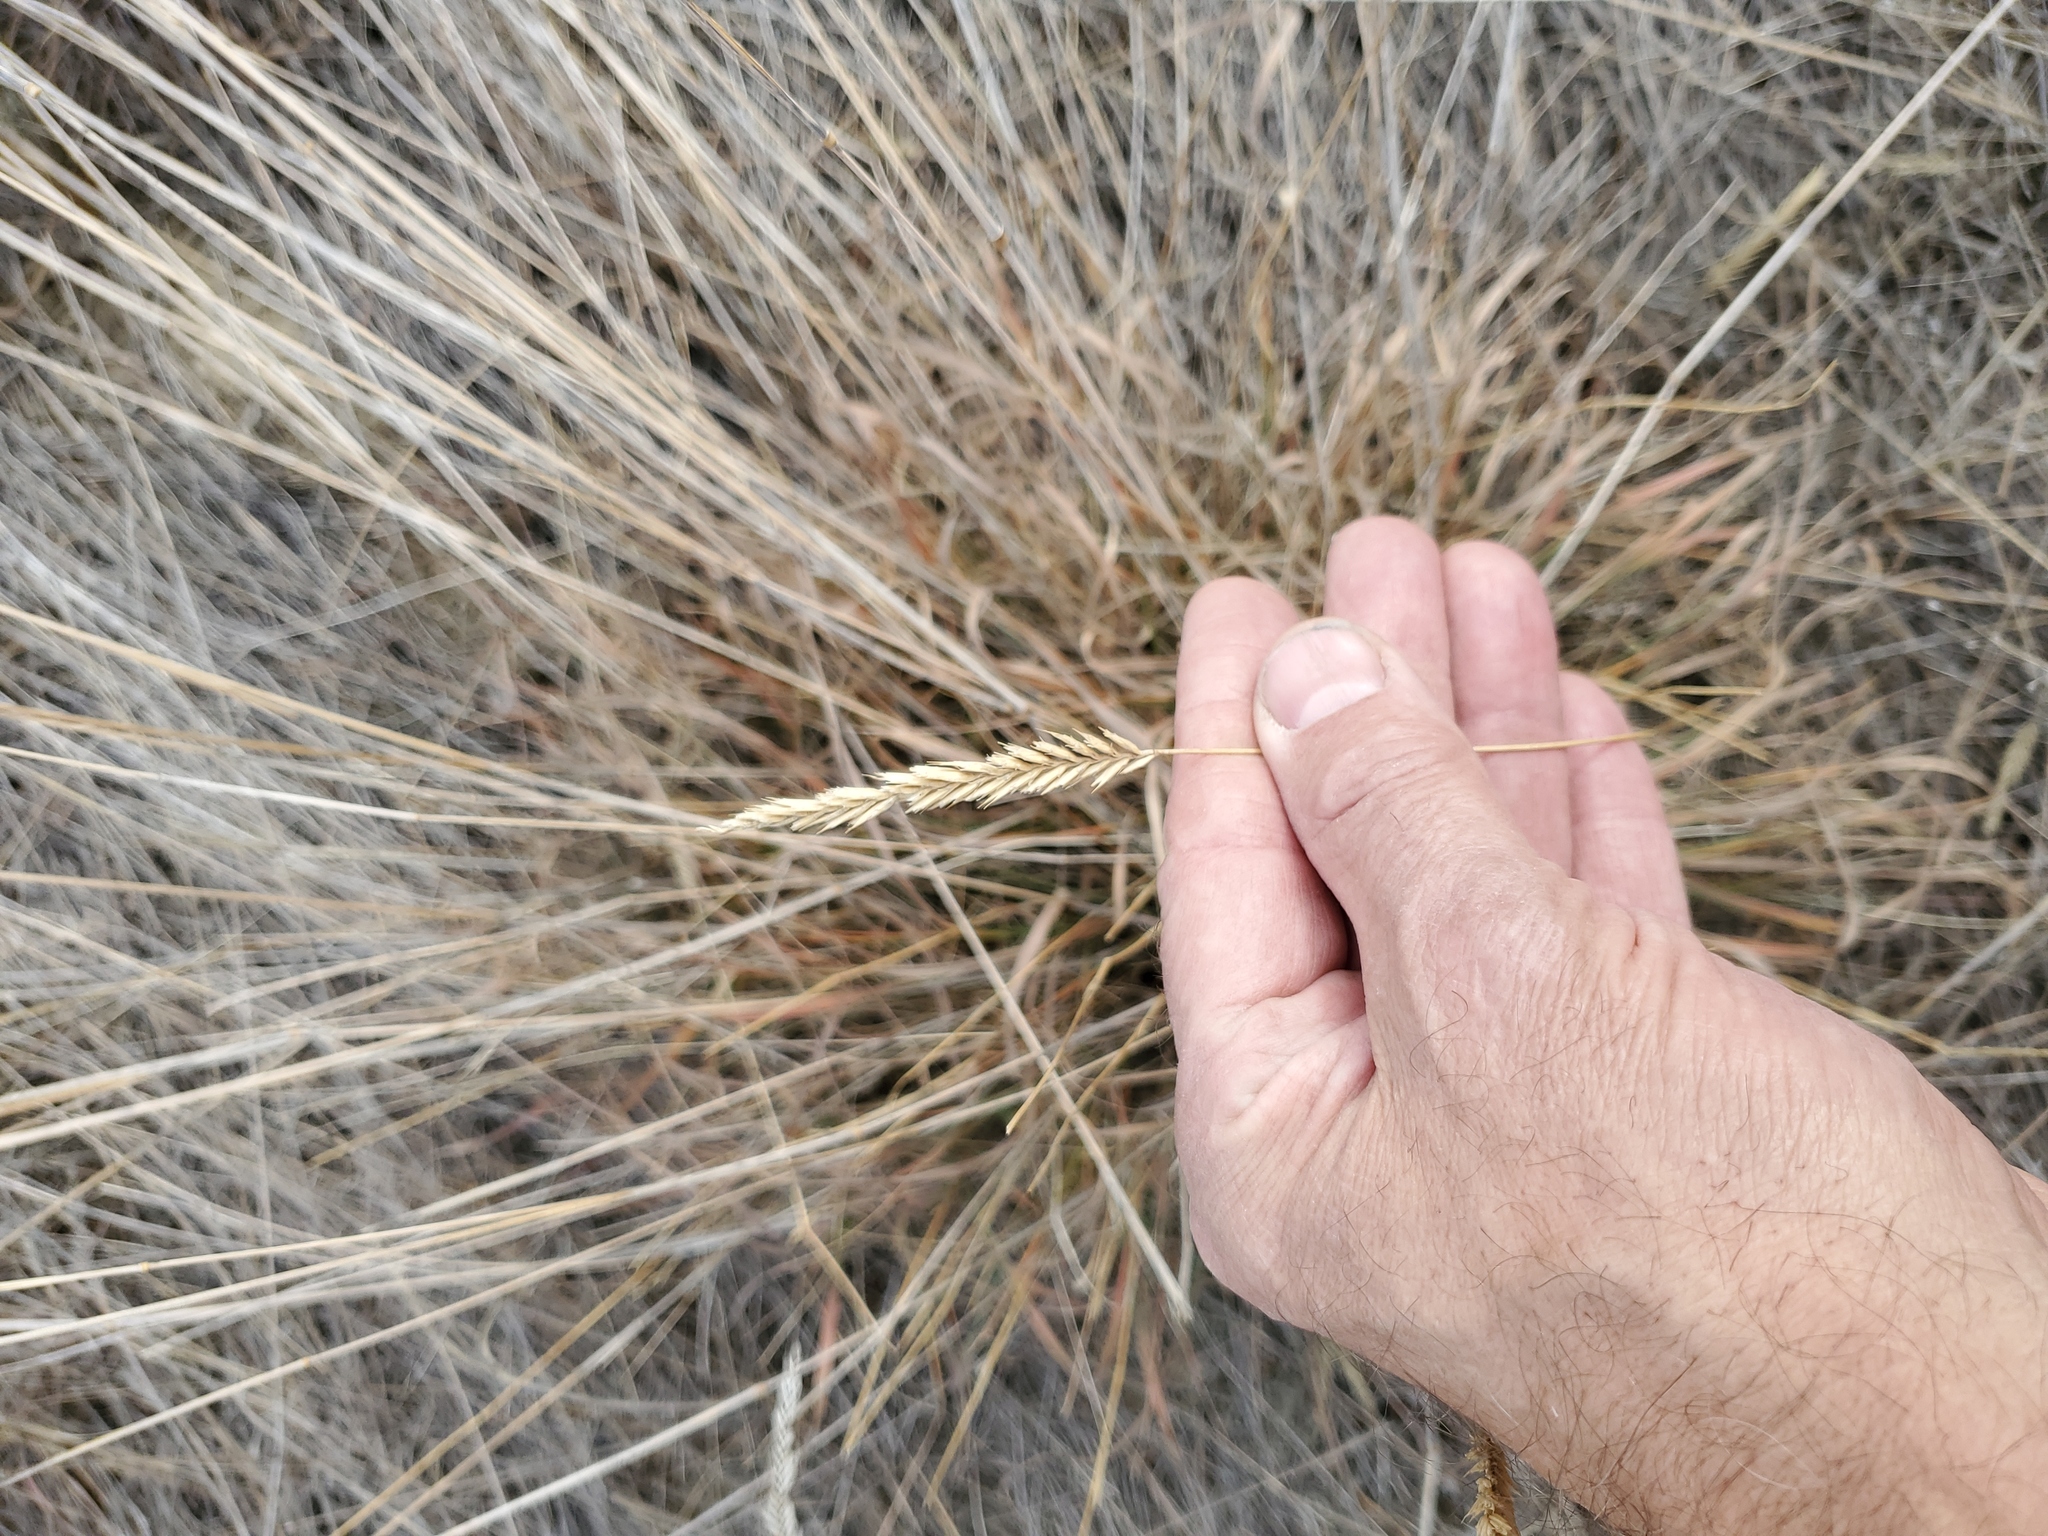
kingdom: Plantae
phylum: Tracheophyta
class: Liliopsida
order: Poales
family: Poaceae
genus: Agropyron
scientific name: Agropyron cristatum
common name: Crested wheatgrass
